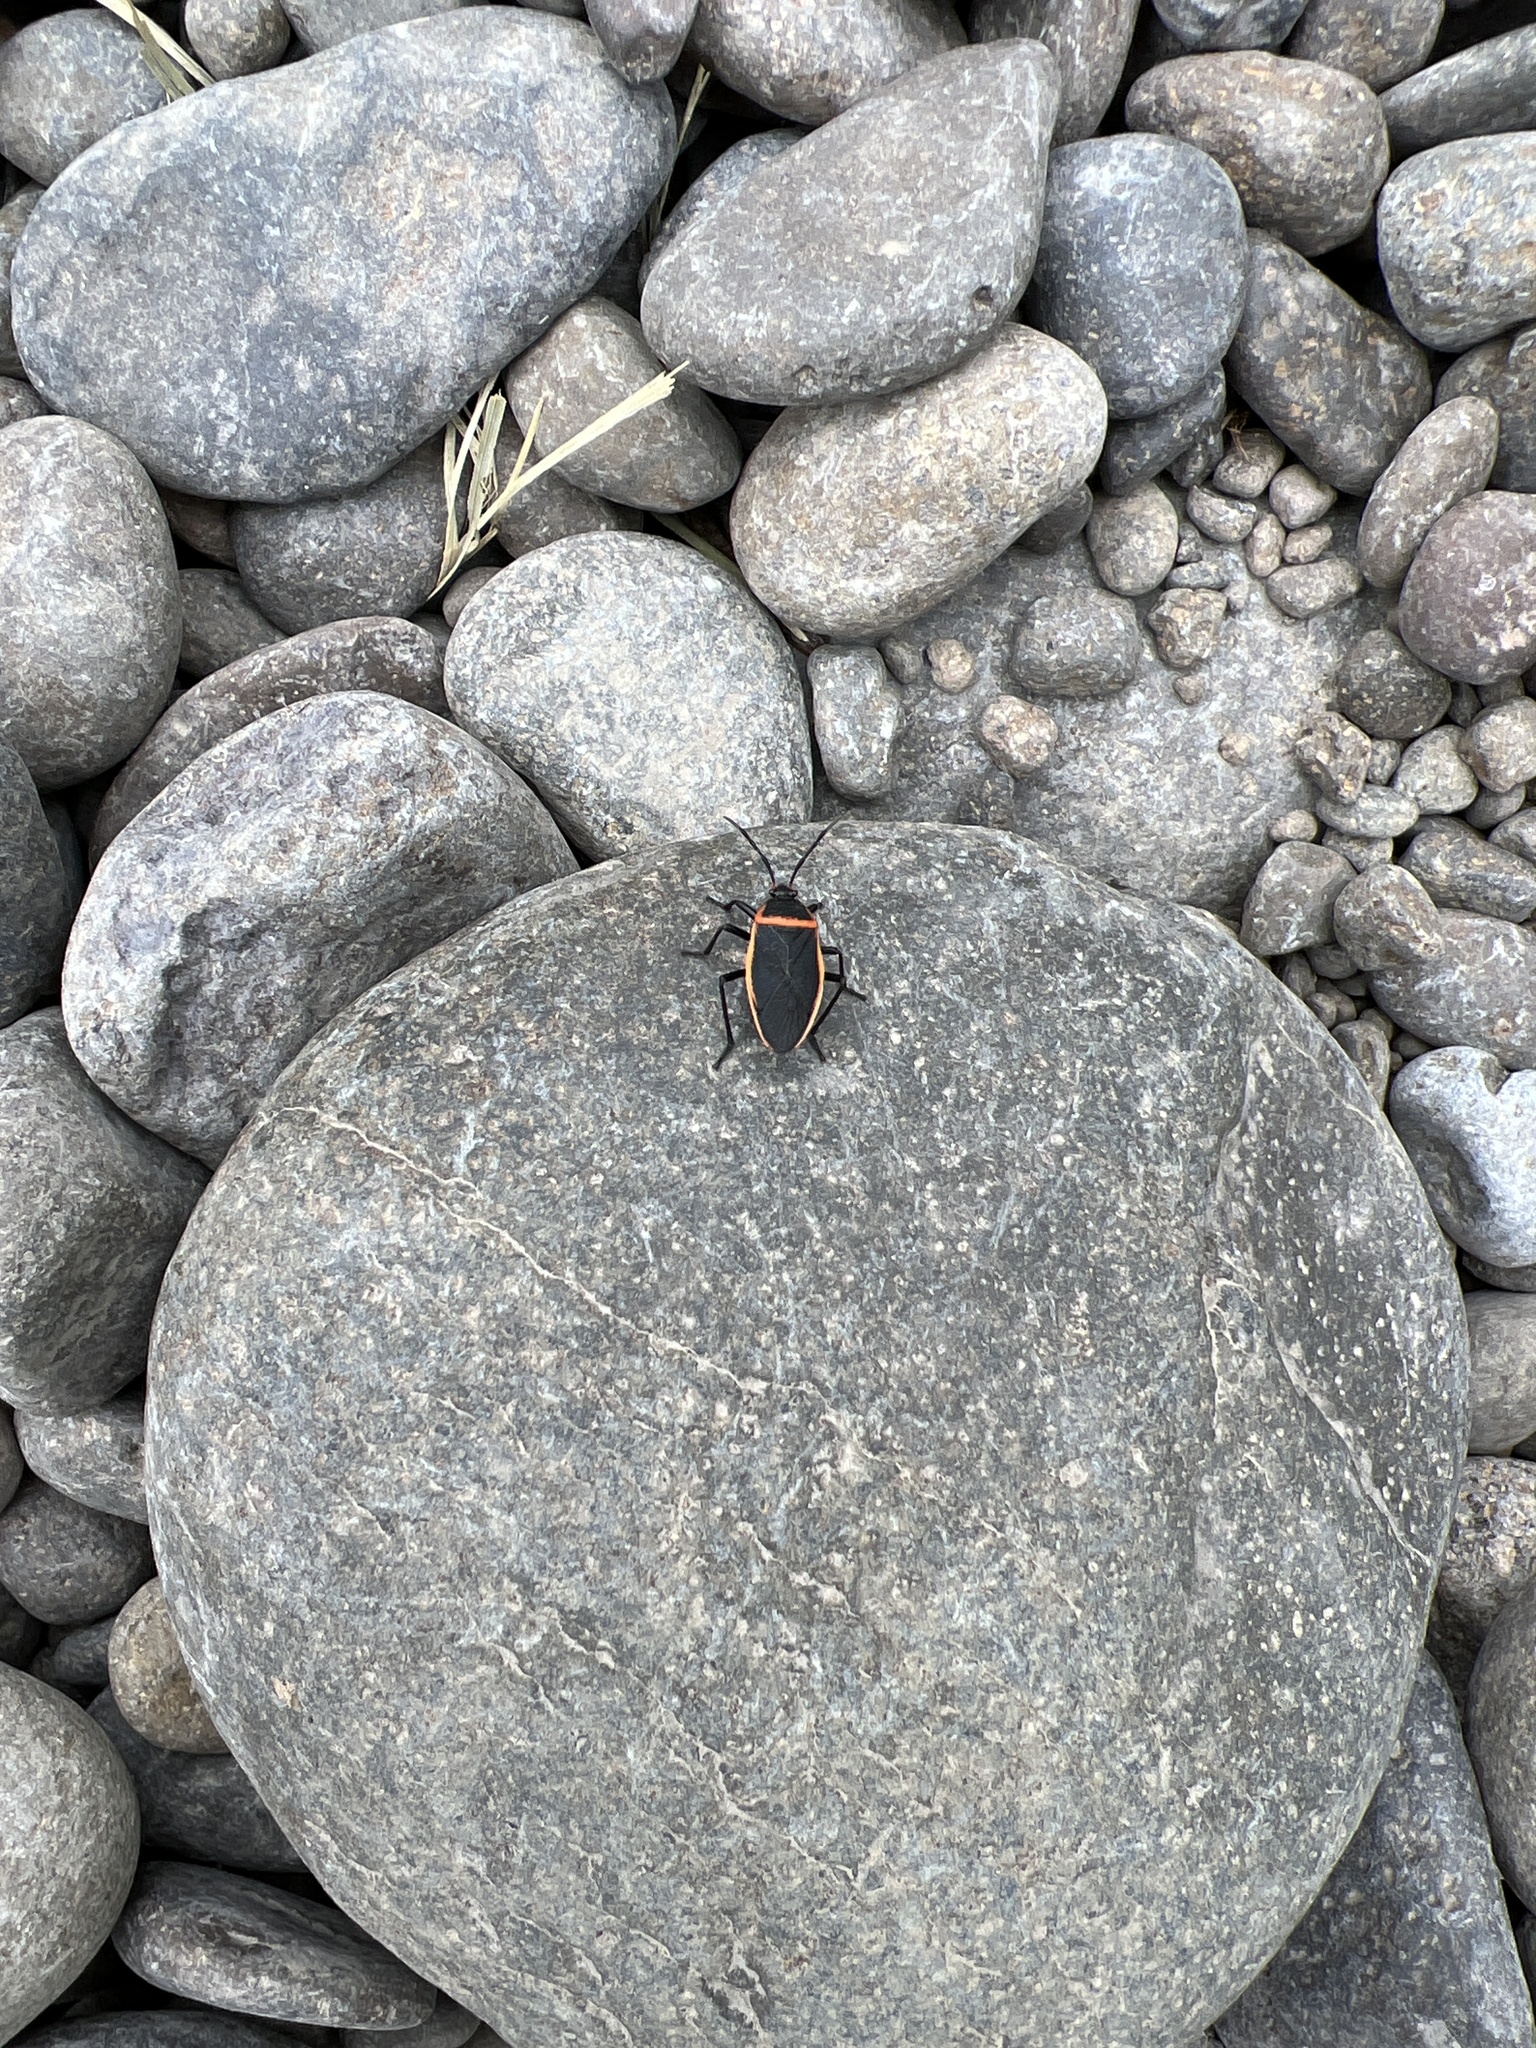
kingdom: Animalia
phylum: Arthropoda
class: Insecta
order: Hemiptera
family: Largidae
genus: Largus
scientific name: Largus californicus
